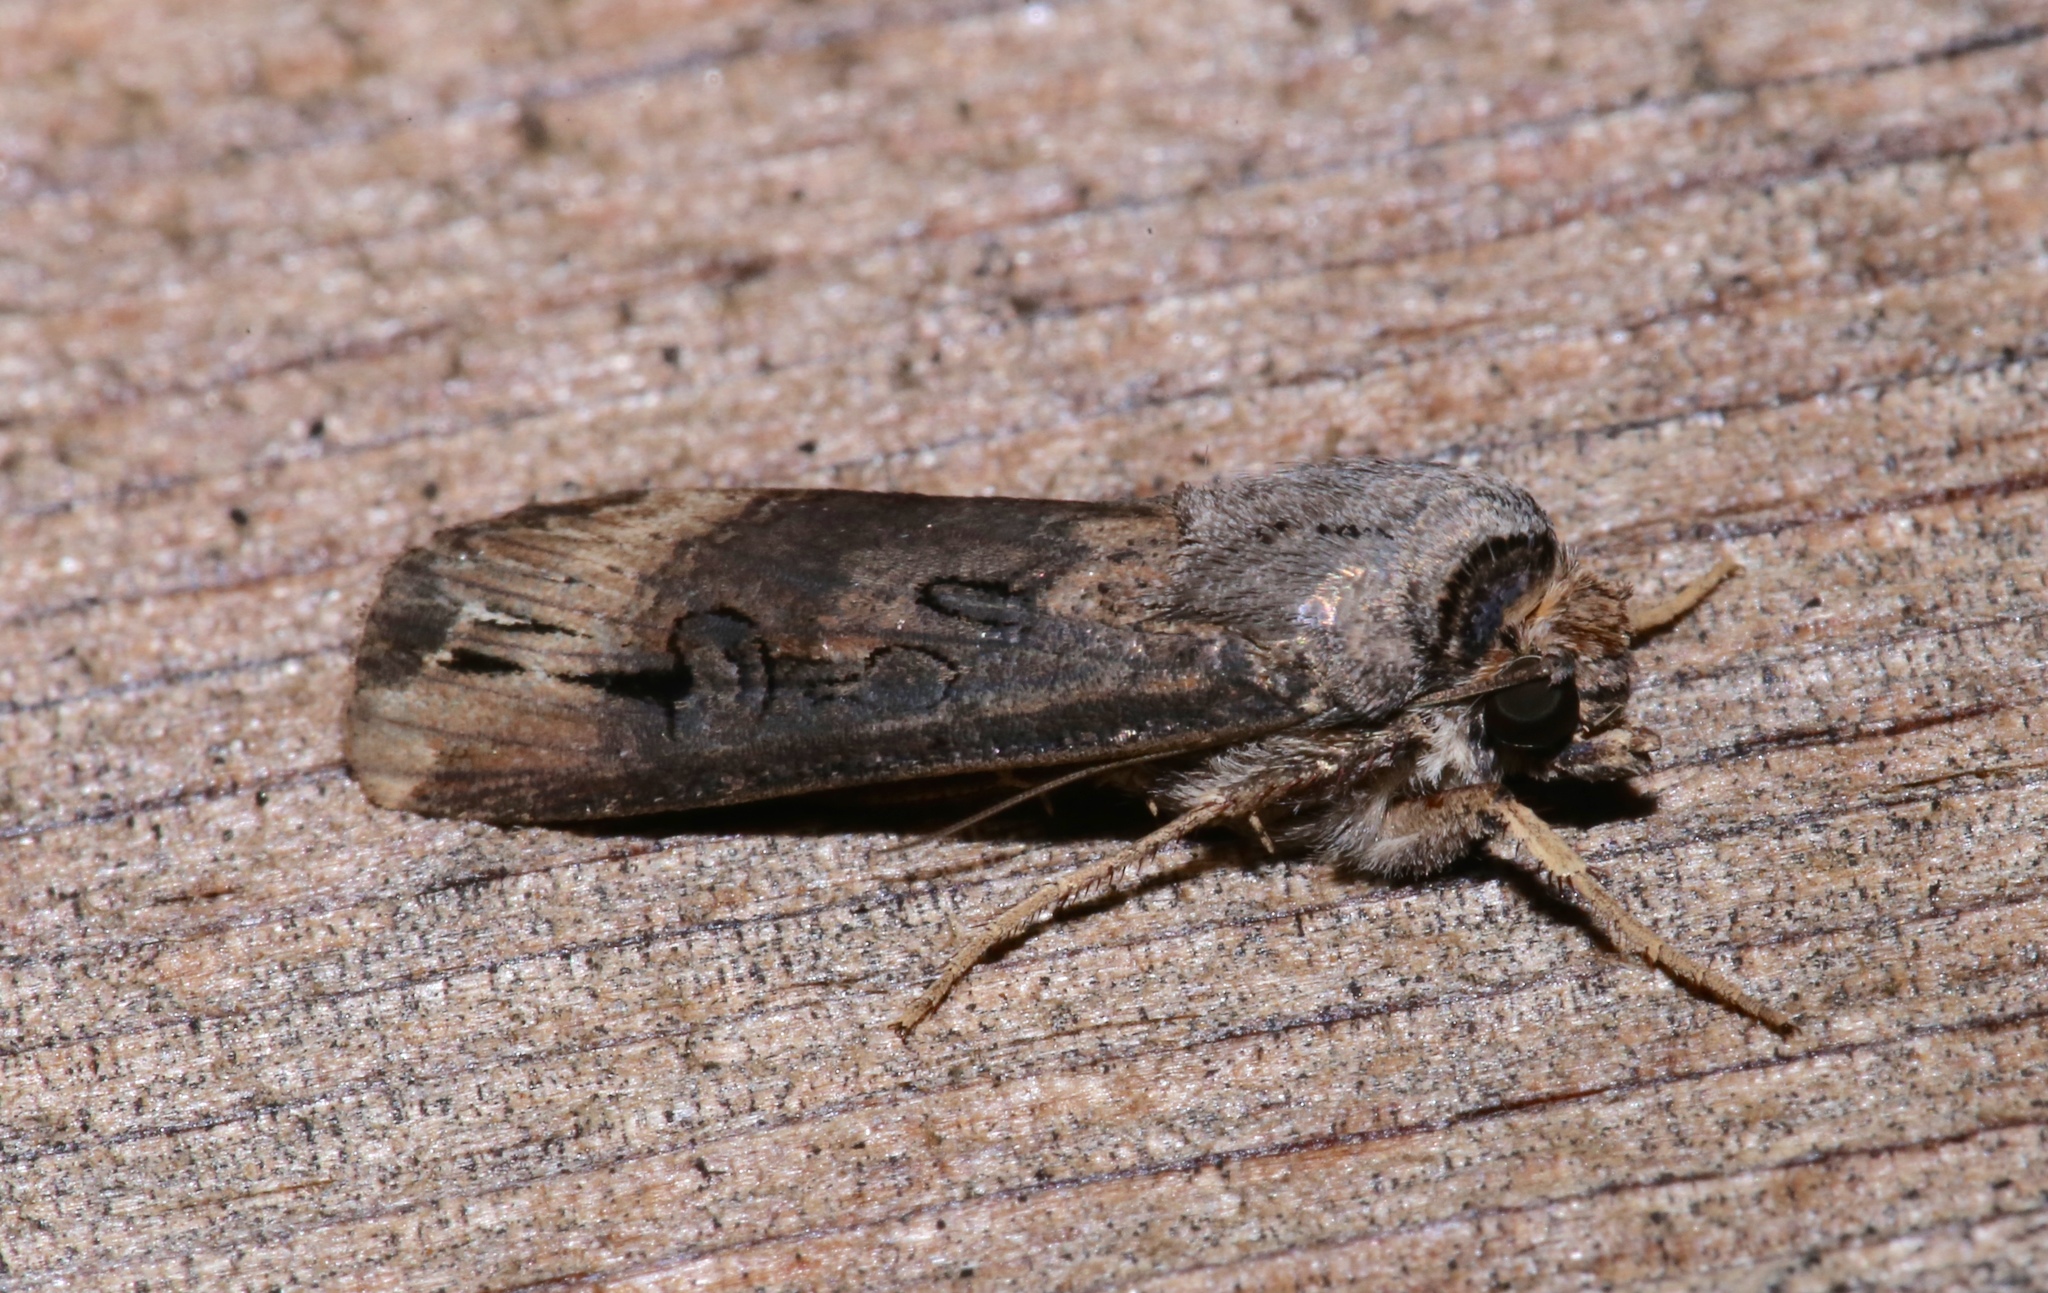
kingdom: Animalia
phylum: Arthropoda
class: Insecta
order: Lepidoptera
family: Noctuidae
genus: Agrotis
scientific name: Agrotis ipsilon
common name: Dark sword-grass
